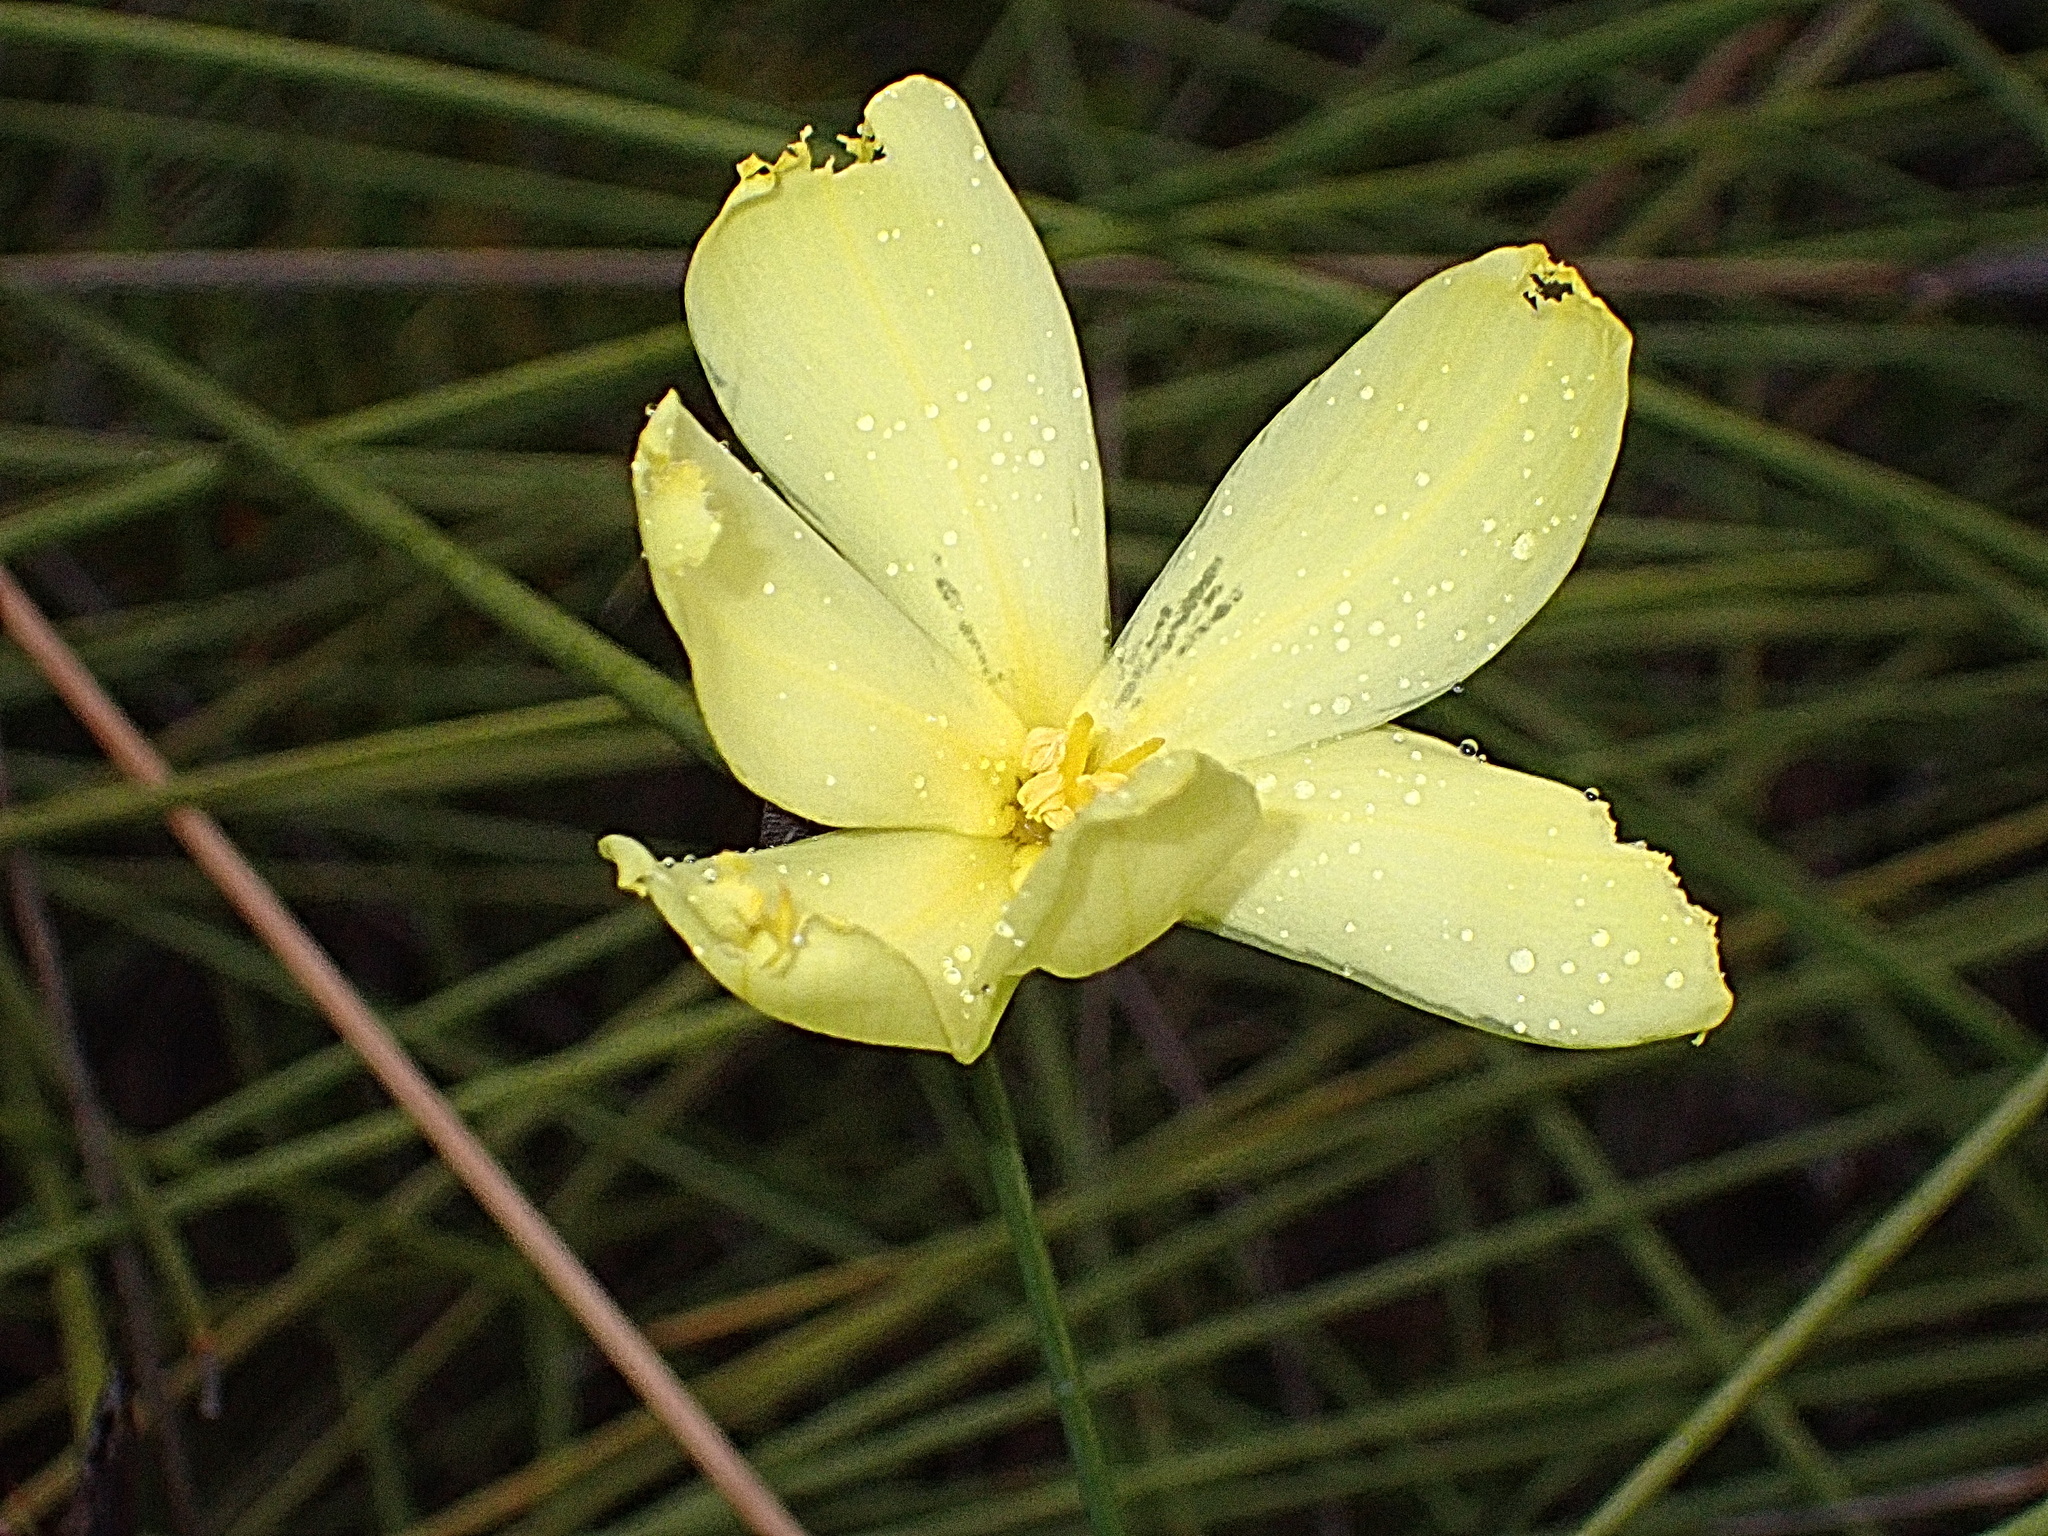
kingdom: Plantae
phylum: Tracheophyta
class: Liliopsida
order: Asparagales
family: Iridaceae
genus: Bobartia
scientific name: Bobartia aphylla
